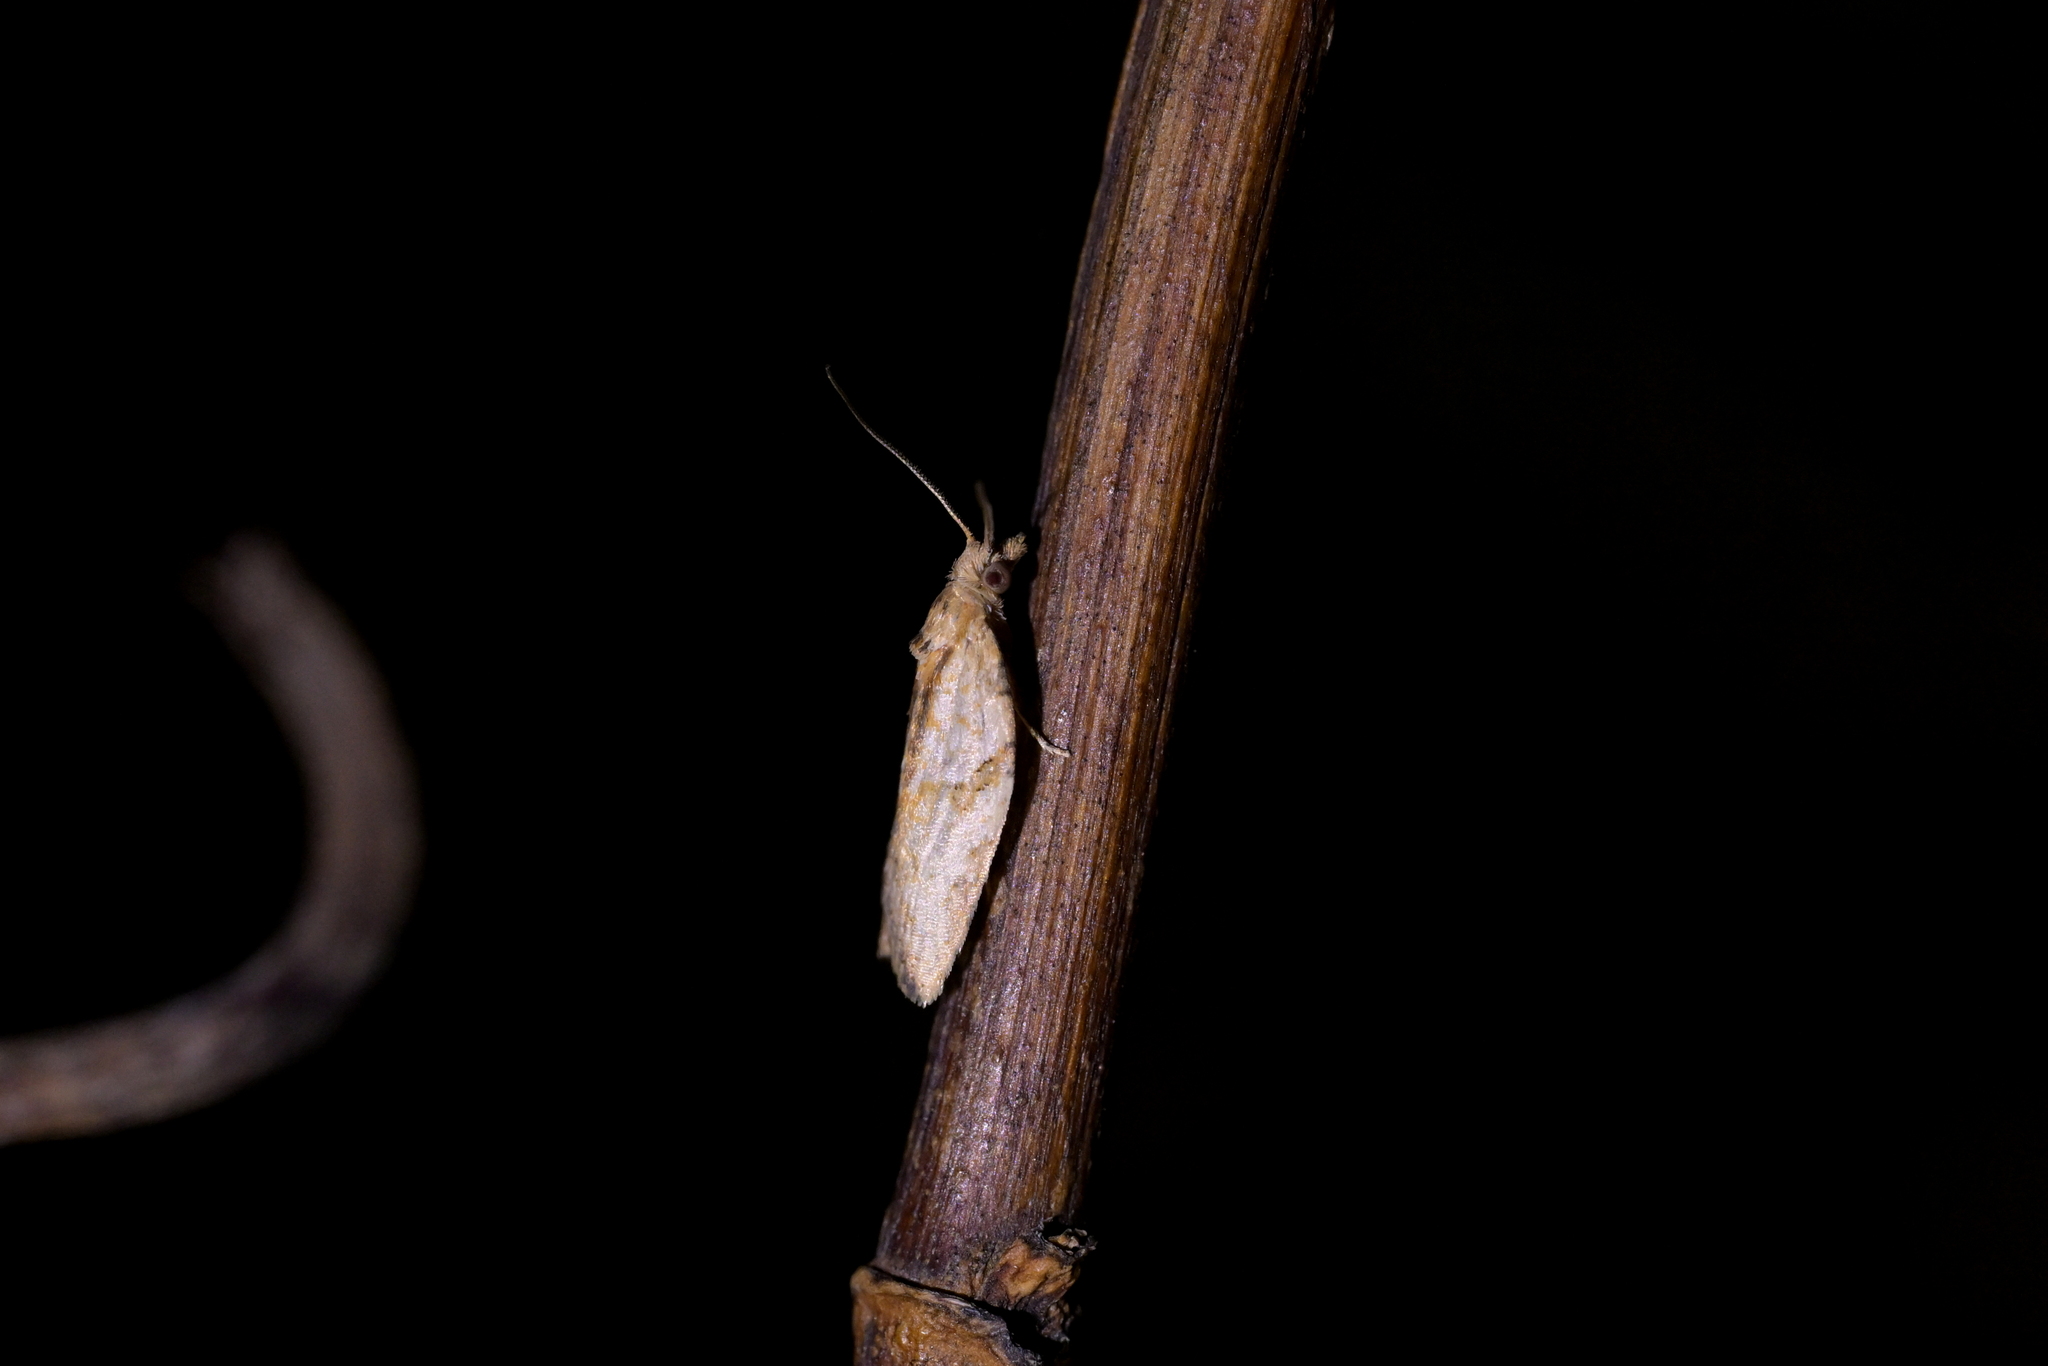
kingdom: Animalia
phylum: Arthropoda
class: Insecta
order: Lepidoptera
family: Tortricidae
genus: Epiphyas
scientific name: Epiphyas postvittana
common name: Light brown apple moth
